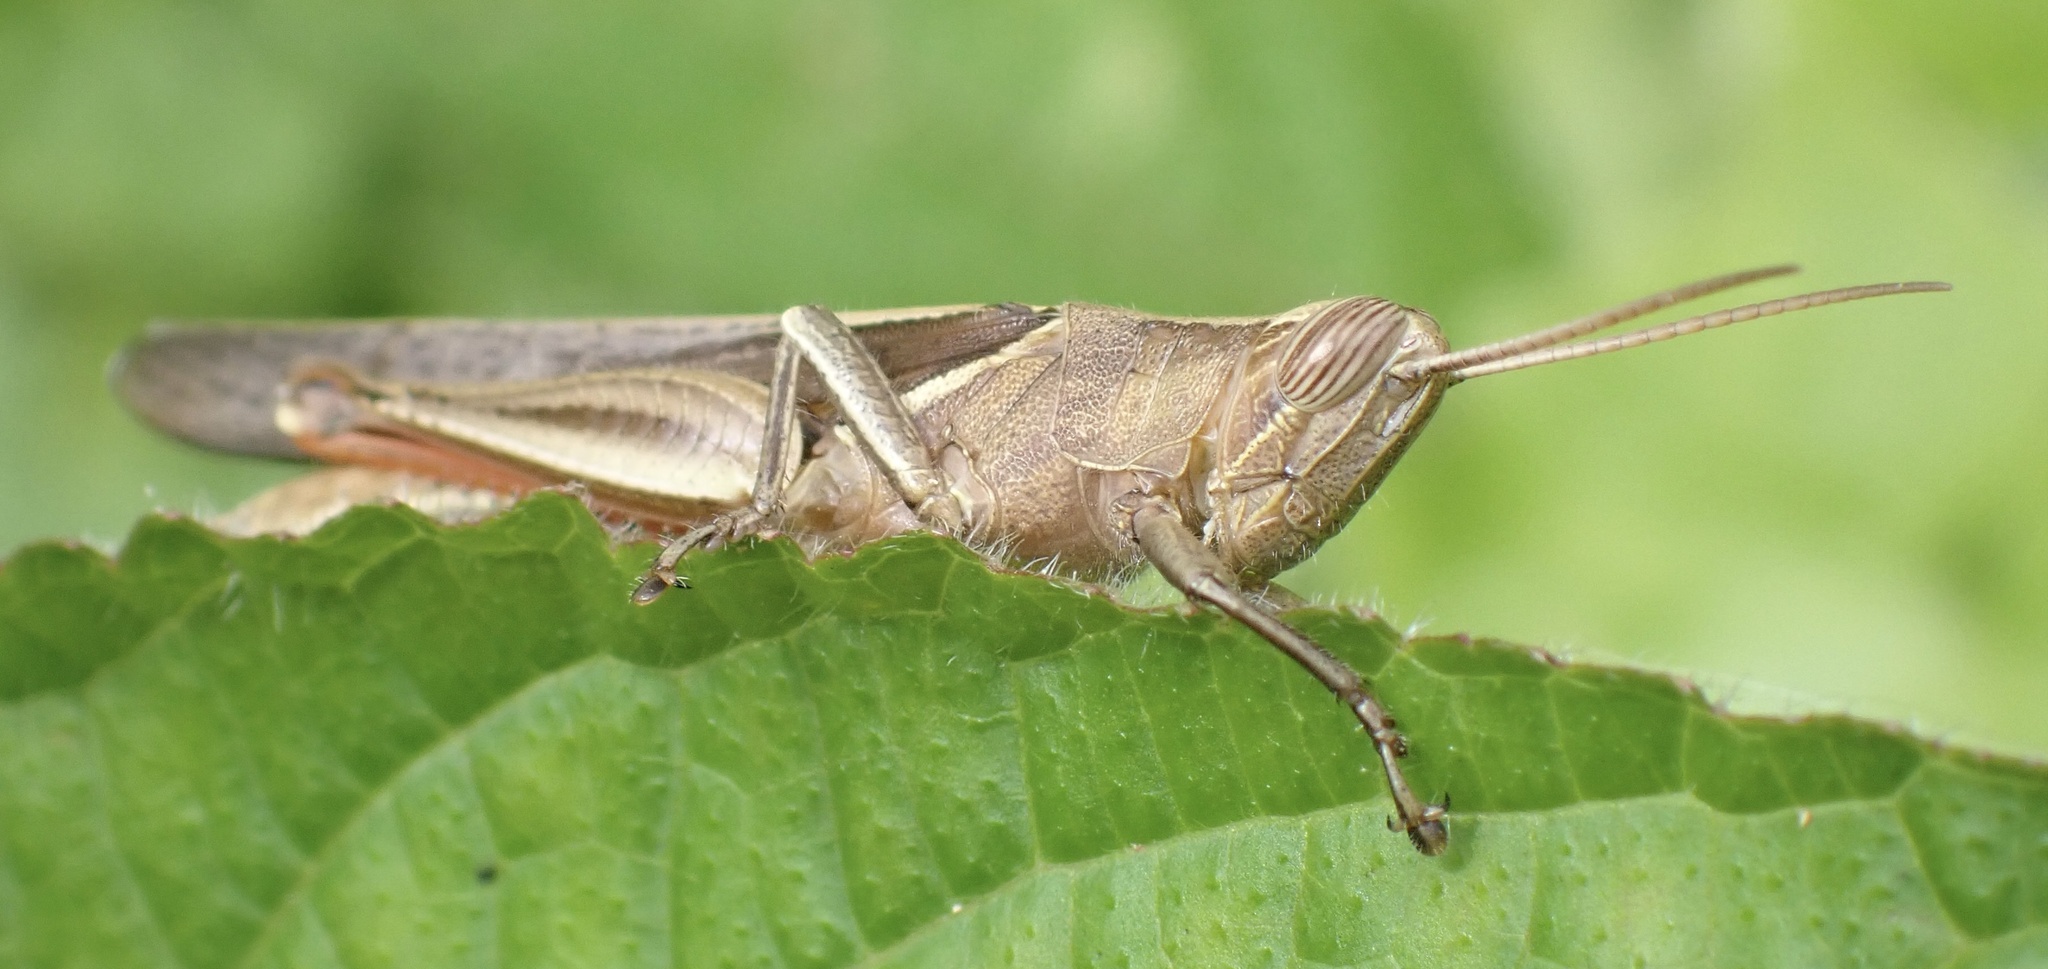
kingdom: Animalia
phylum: Arthropoda
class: Insecta
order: Orthoptera
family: Acrididae
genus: Stenocatantops
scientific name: Stenocatantops splendens
